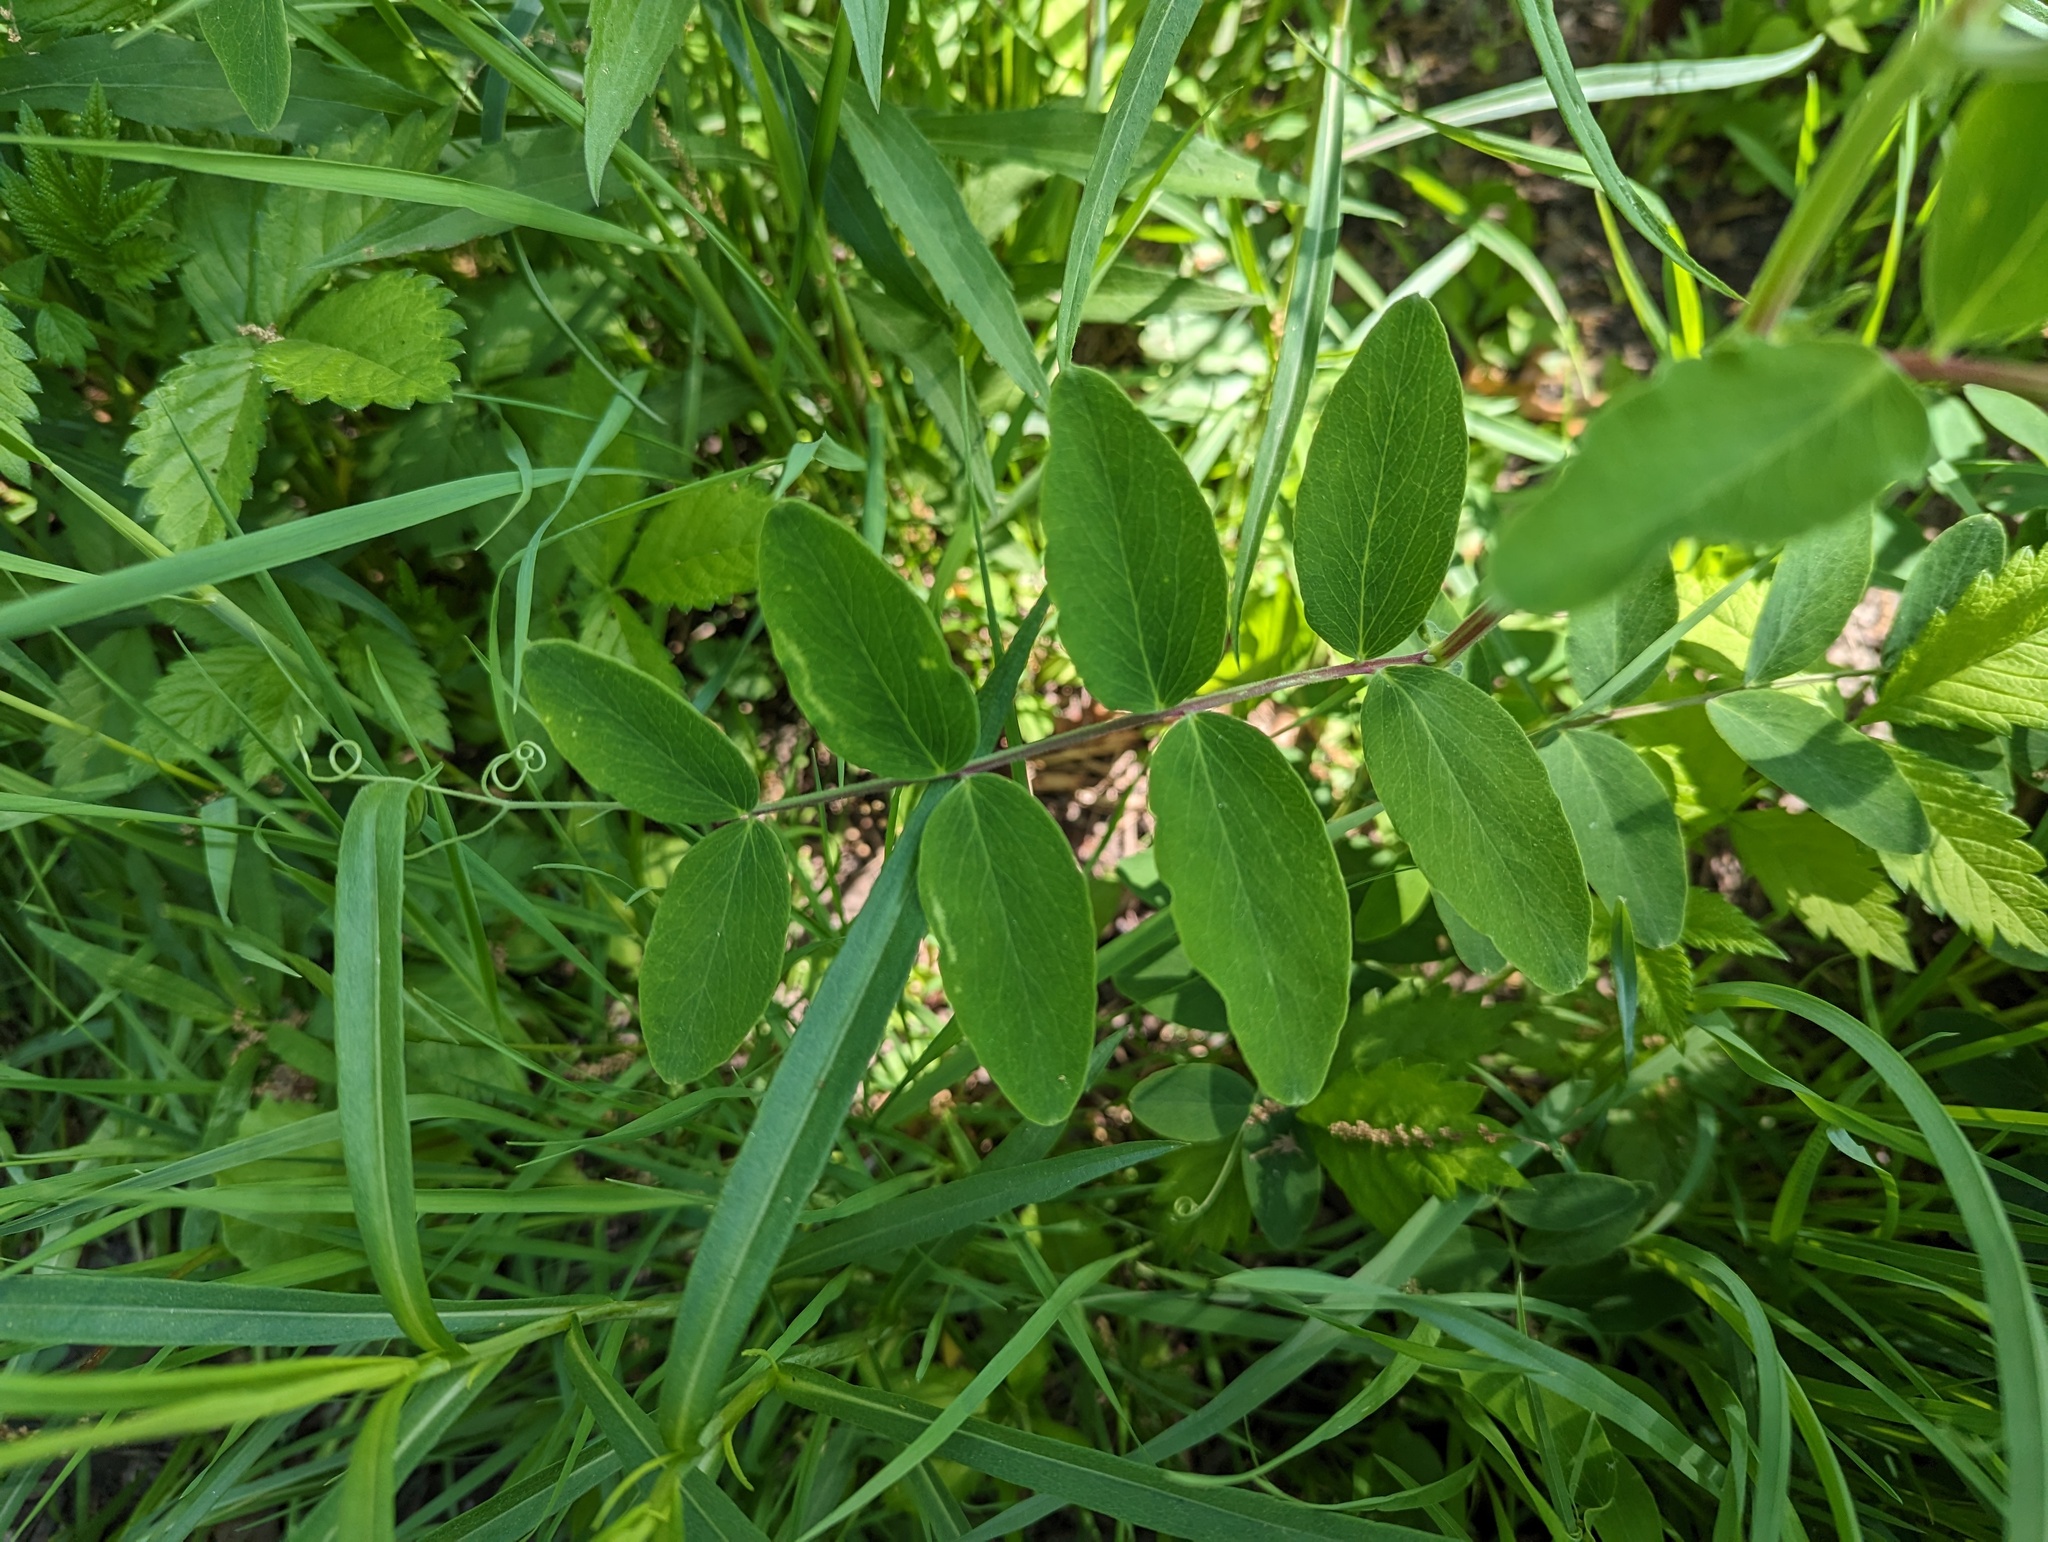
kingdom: Plantae
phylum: Tracheophyta
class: Magnoliopsida
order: Fabales
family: Fabaceae
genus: Lathyrus
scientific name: Lathyrus venosus
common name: Forest-pea
